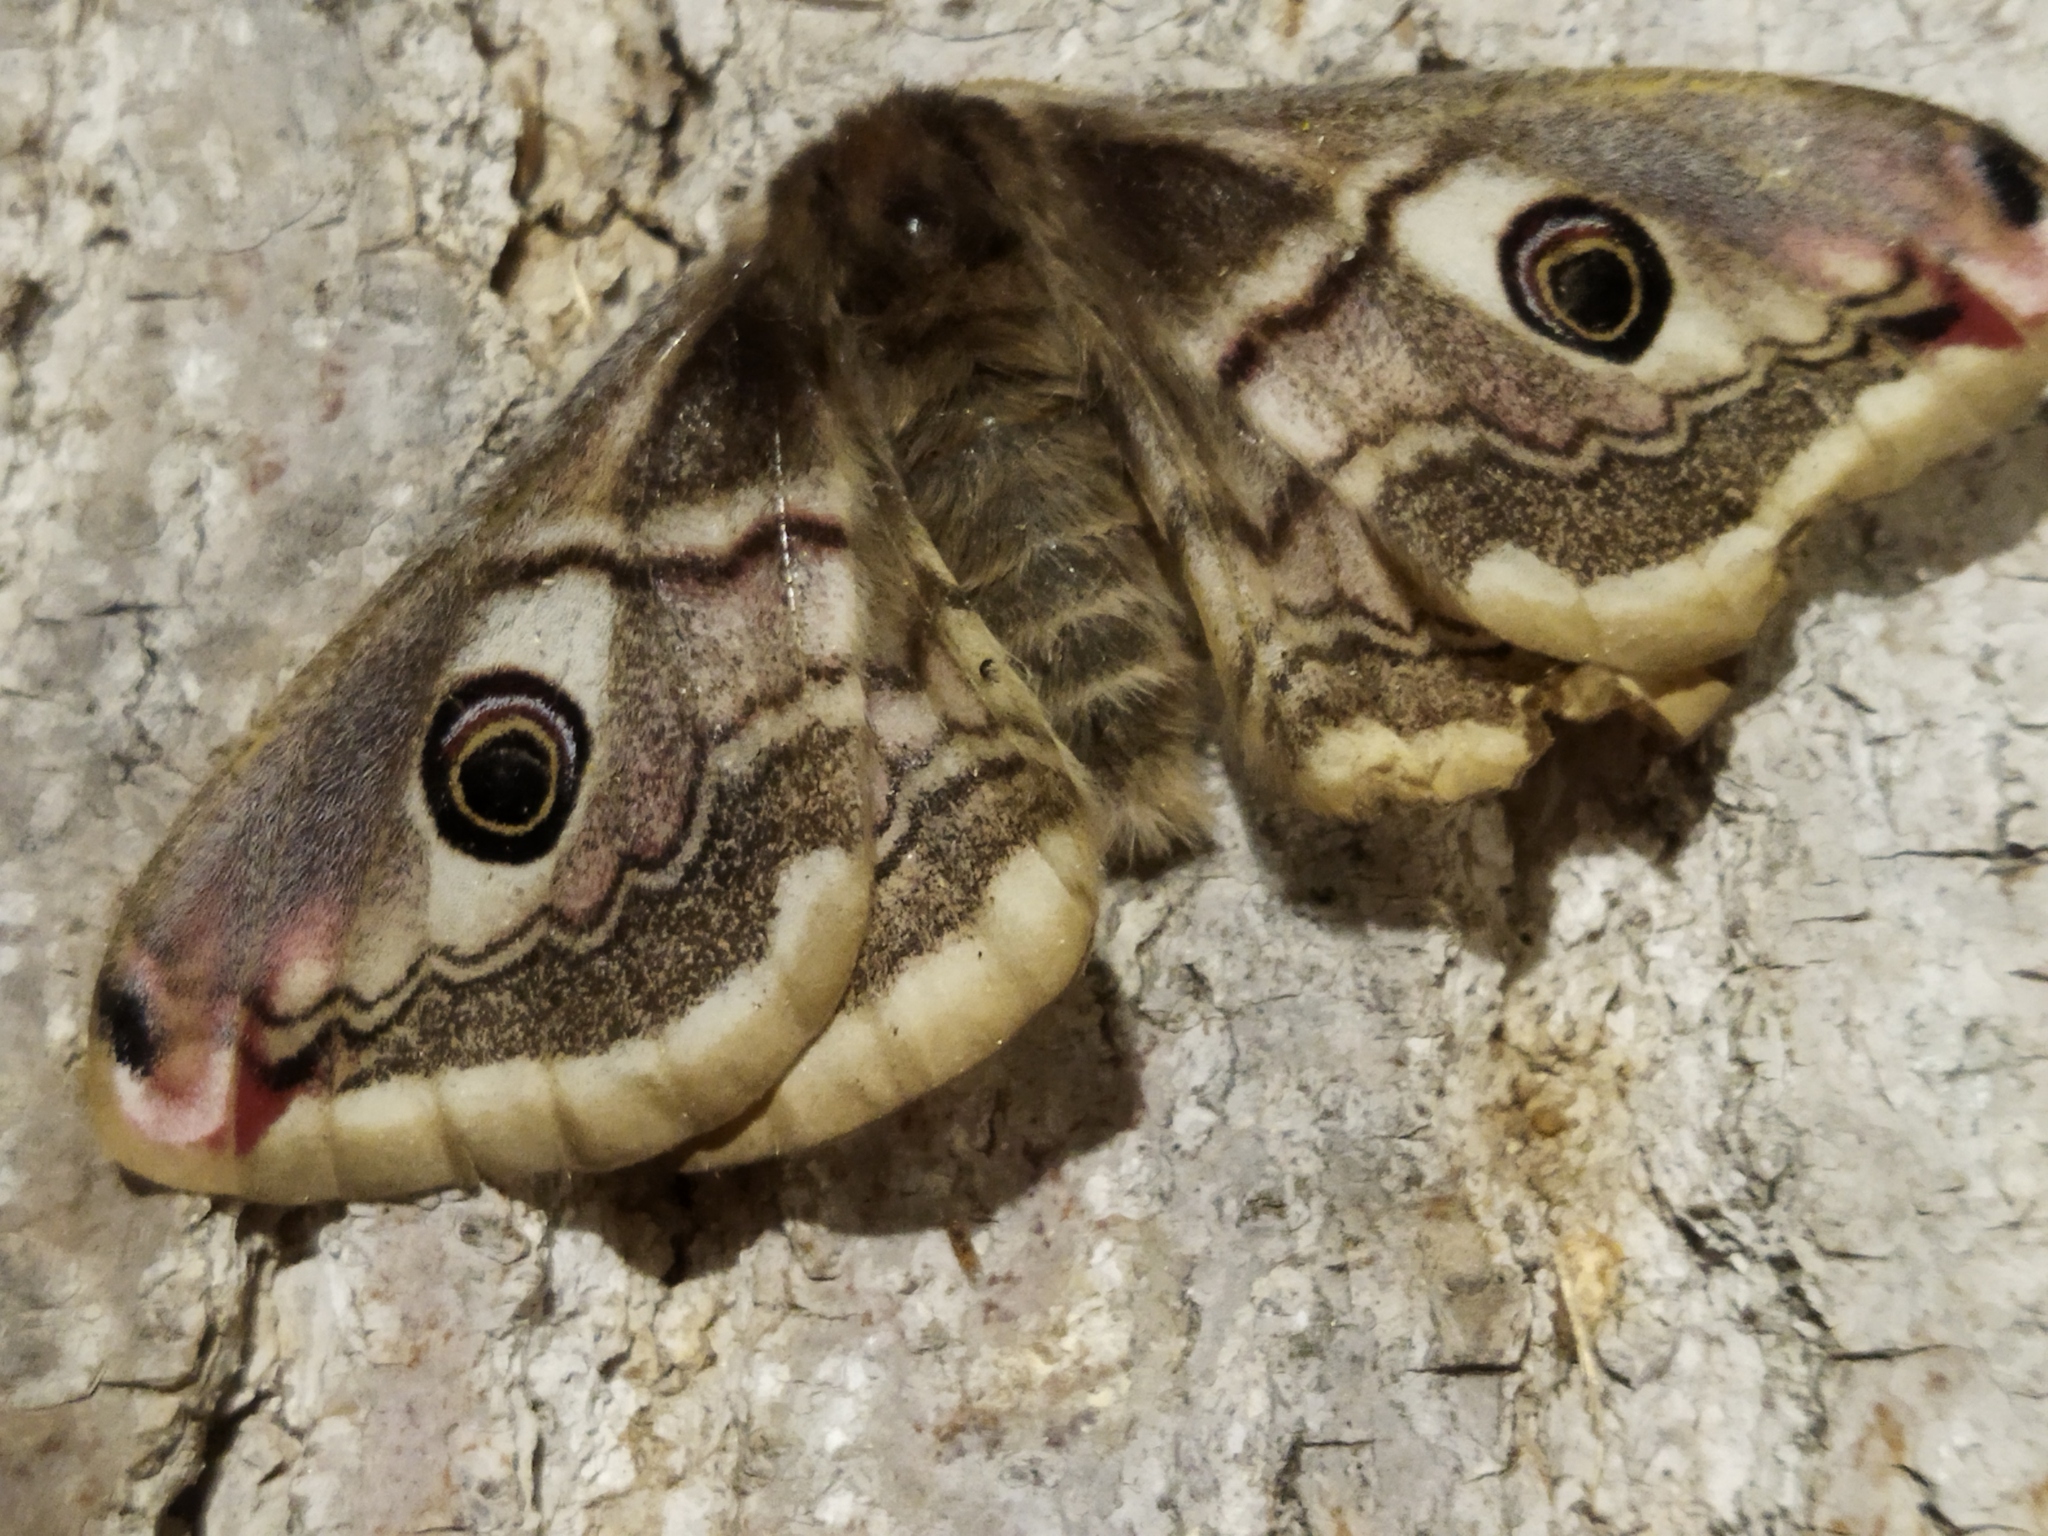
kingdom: Animalia
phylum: Arthropoda
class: Insecta
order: Lepidoptera
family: Saturniidae
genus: Saturnia
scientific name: Saturnia pavoniella
